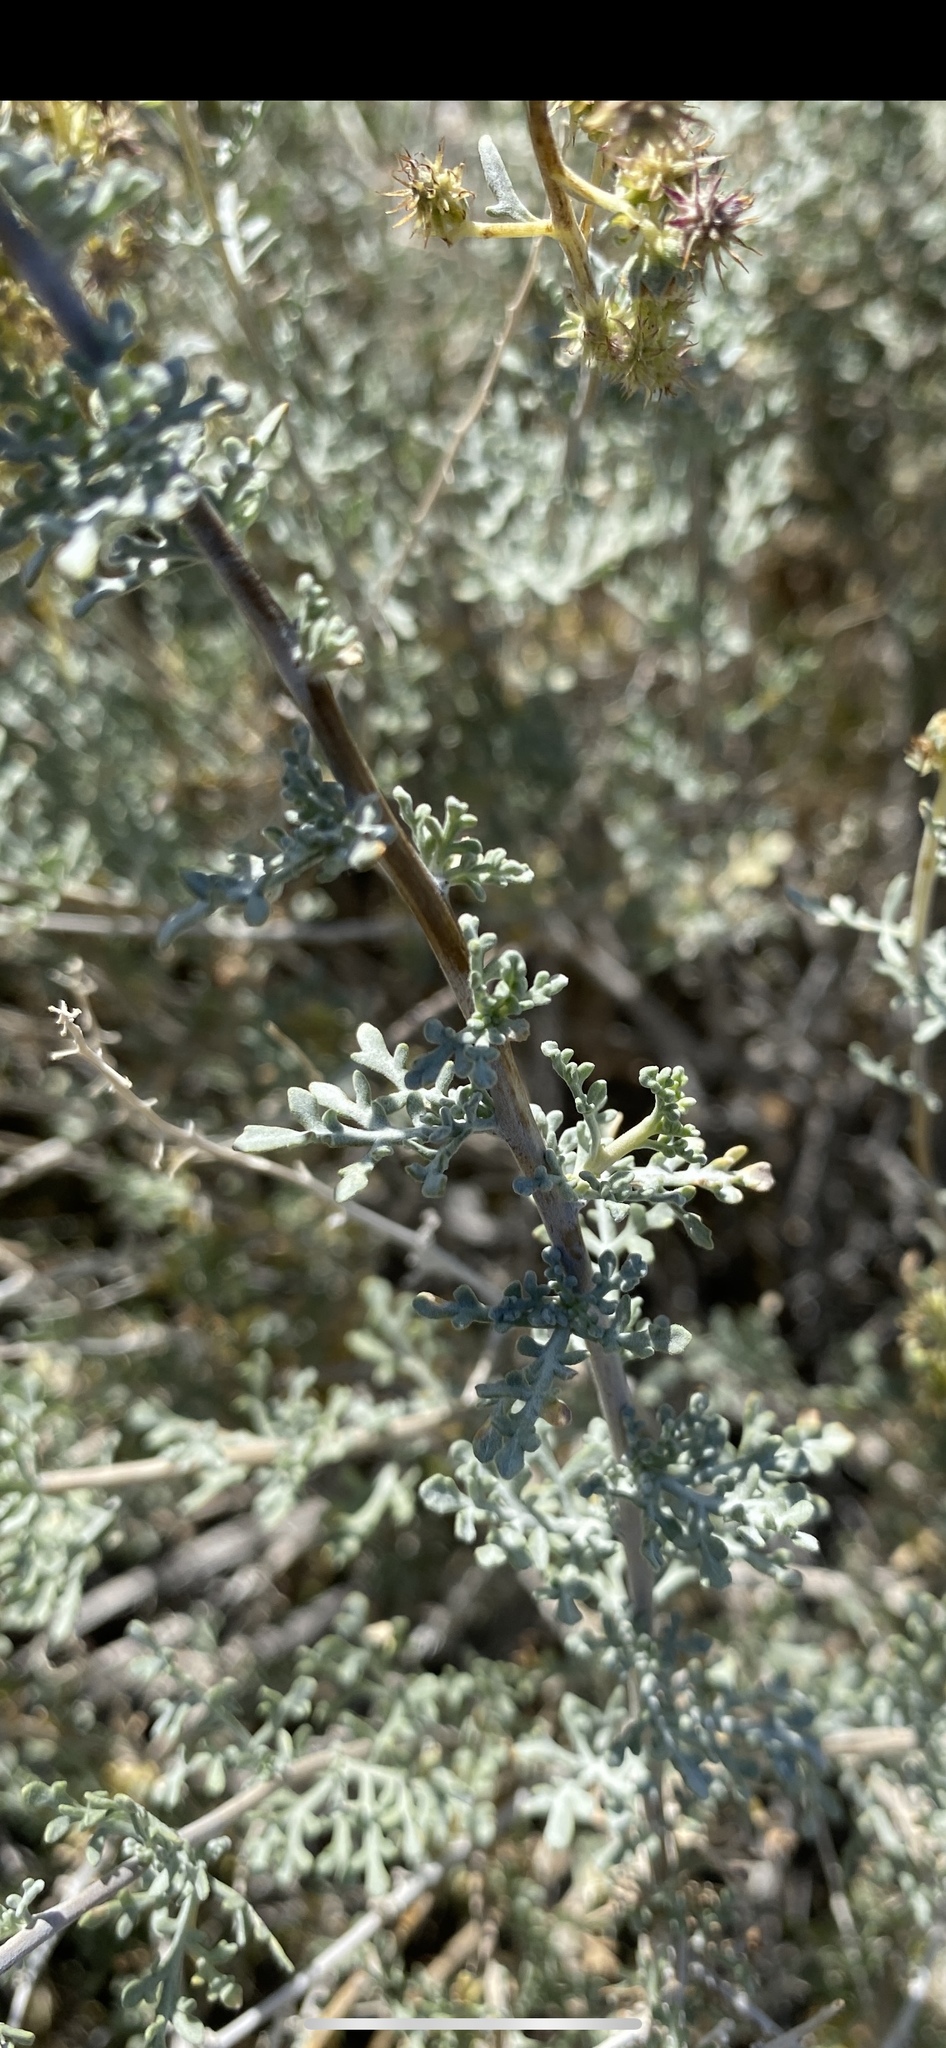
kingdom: Plantae
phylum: Tracheophyta
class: Magnoliopsida
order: Asterales
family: Asteraceae
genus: Ambrosia
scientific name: Ambrosia dumosa
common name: Bur-sage
